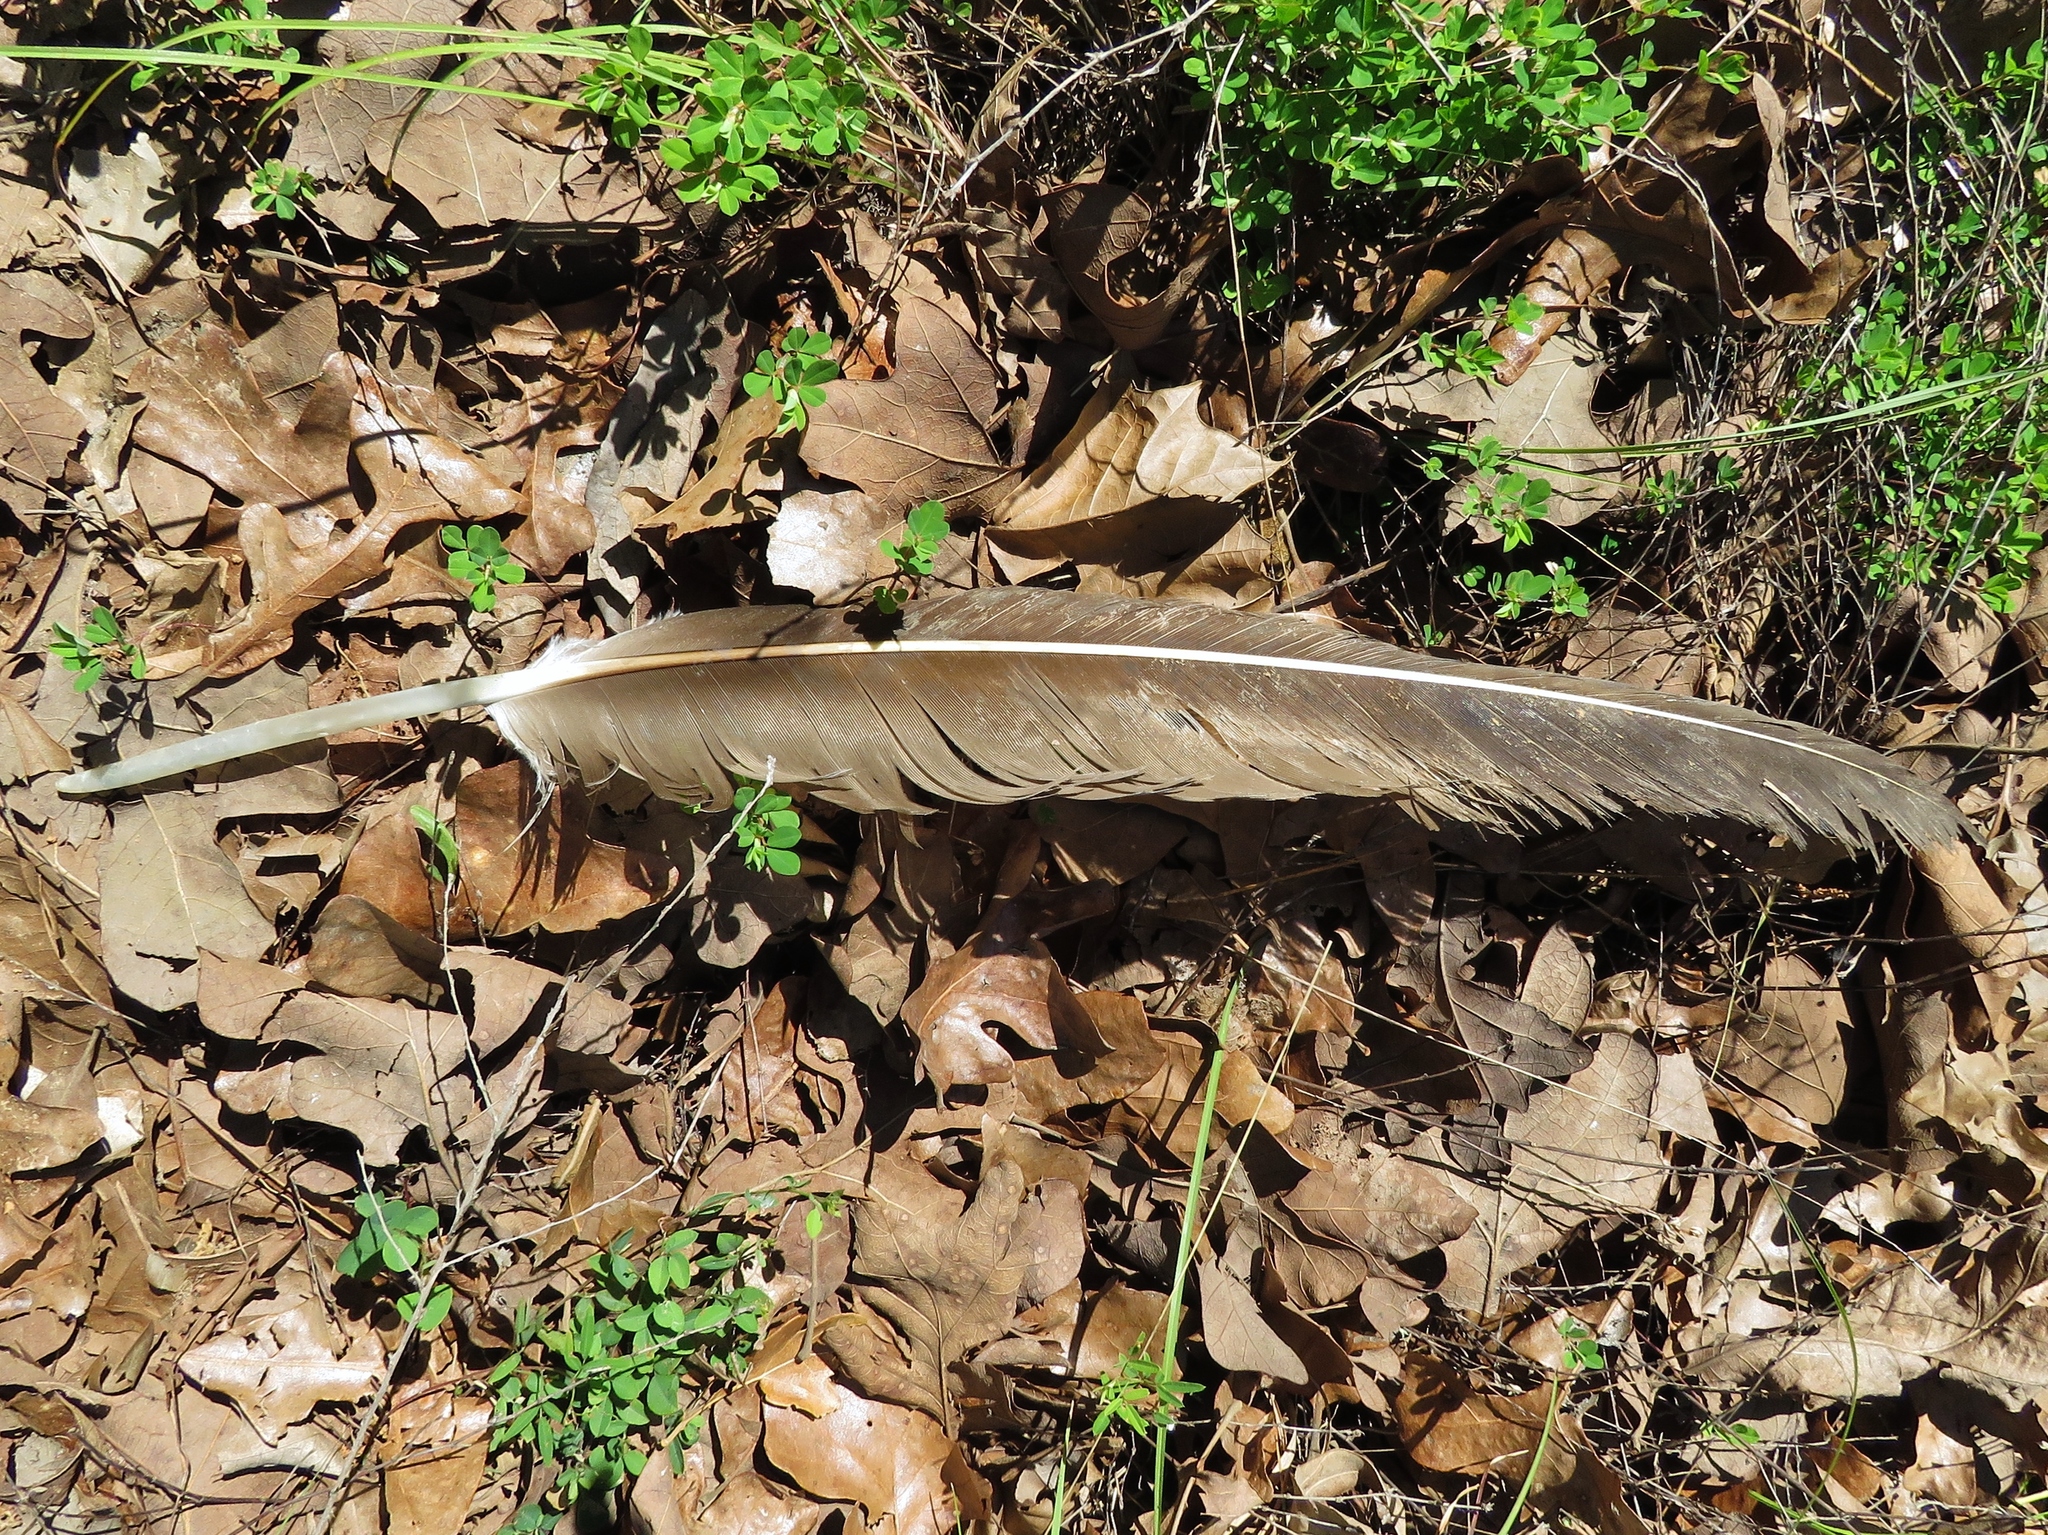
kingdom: Animalia
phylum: Chordata
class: Aves
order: Accipitriformes
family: Cathartidae
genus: Cathartes
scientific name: Cathartes aura
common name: Turkey vulture
